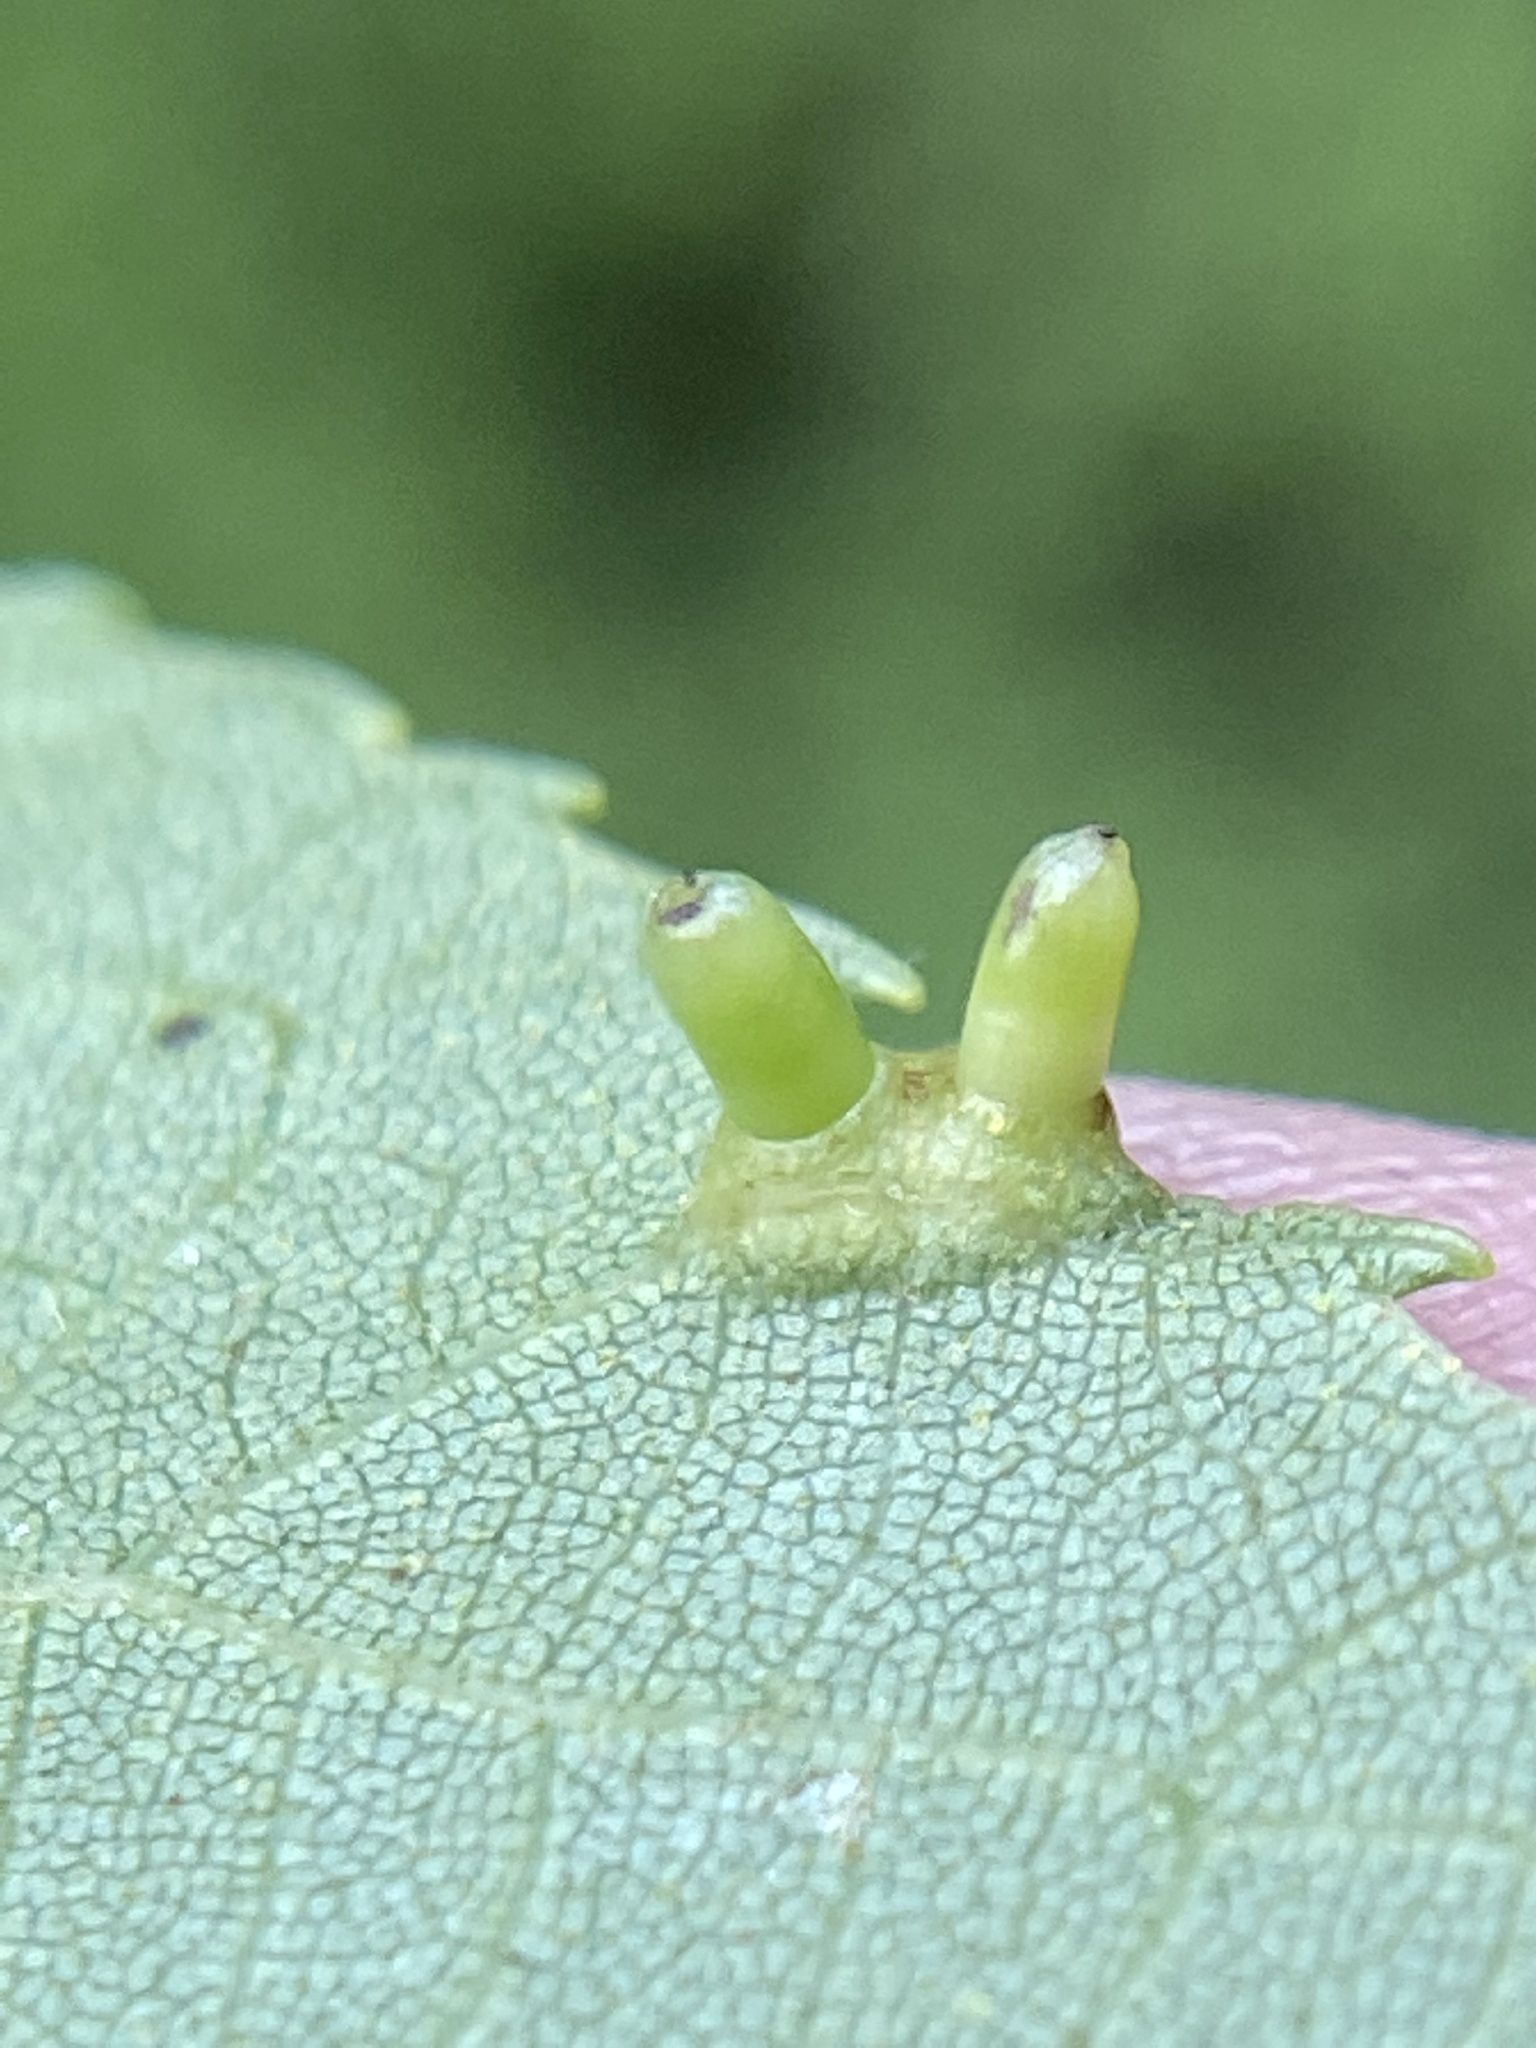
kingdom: Animalia
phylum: Arthropoda
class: Insecta
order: Diptera
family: Cecidomyiidae
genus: Caryomyia
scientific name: Caryomyia tubicola
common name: Hickory bullet gall midge
